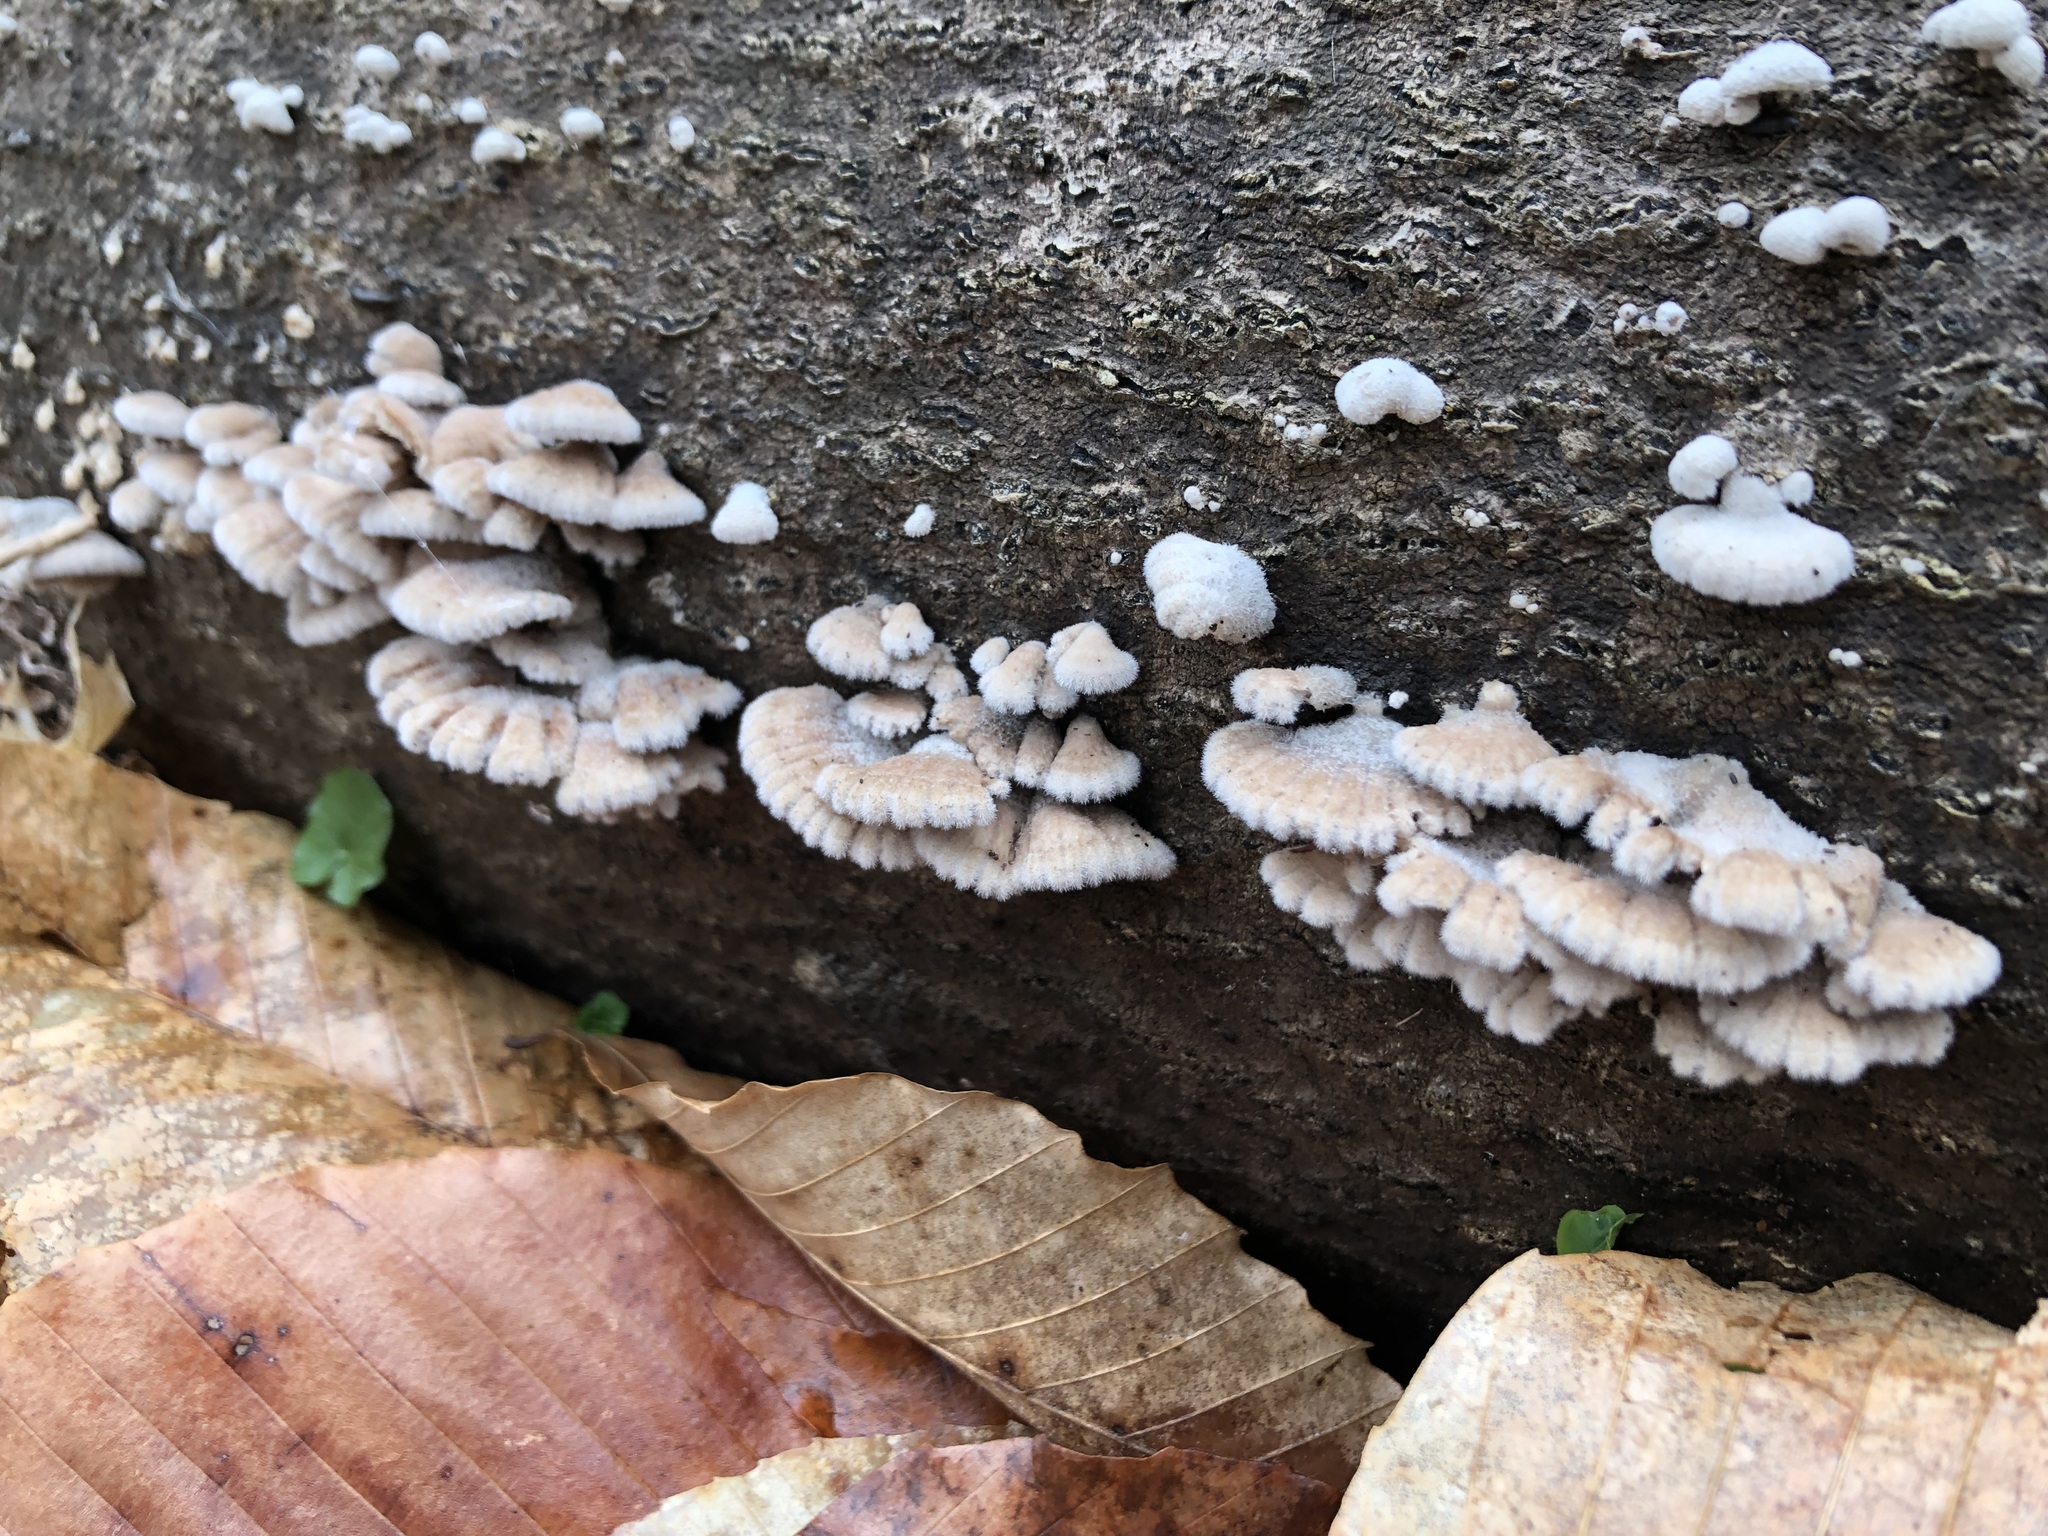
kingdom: Fungi
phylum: Basidiomycota
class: Agaricomycetes
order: Agaricales
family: Schizophyllaceae
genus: Schizophyllum
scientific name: Schizophyllum commune
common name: Common porecrust
